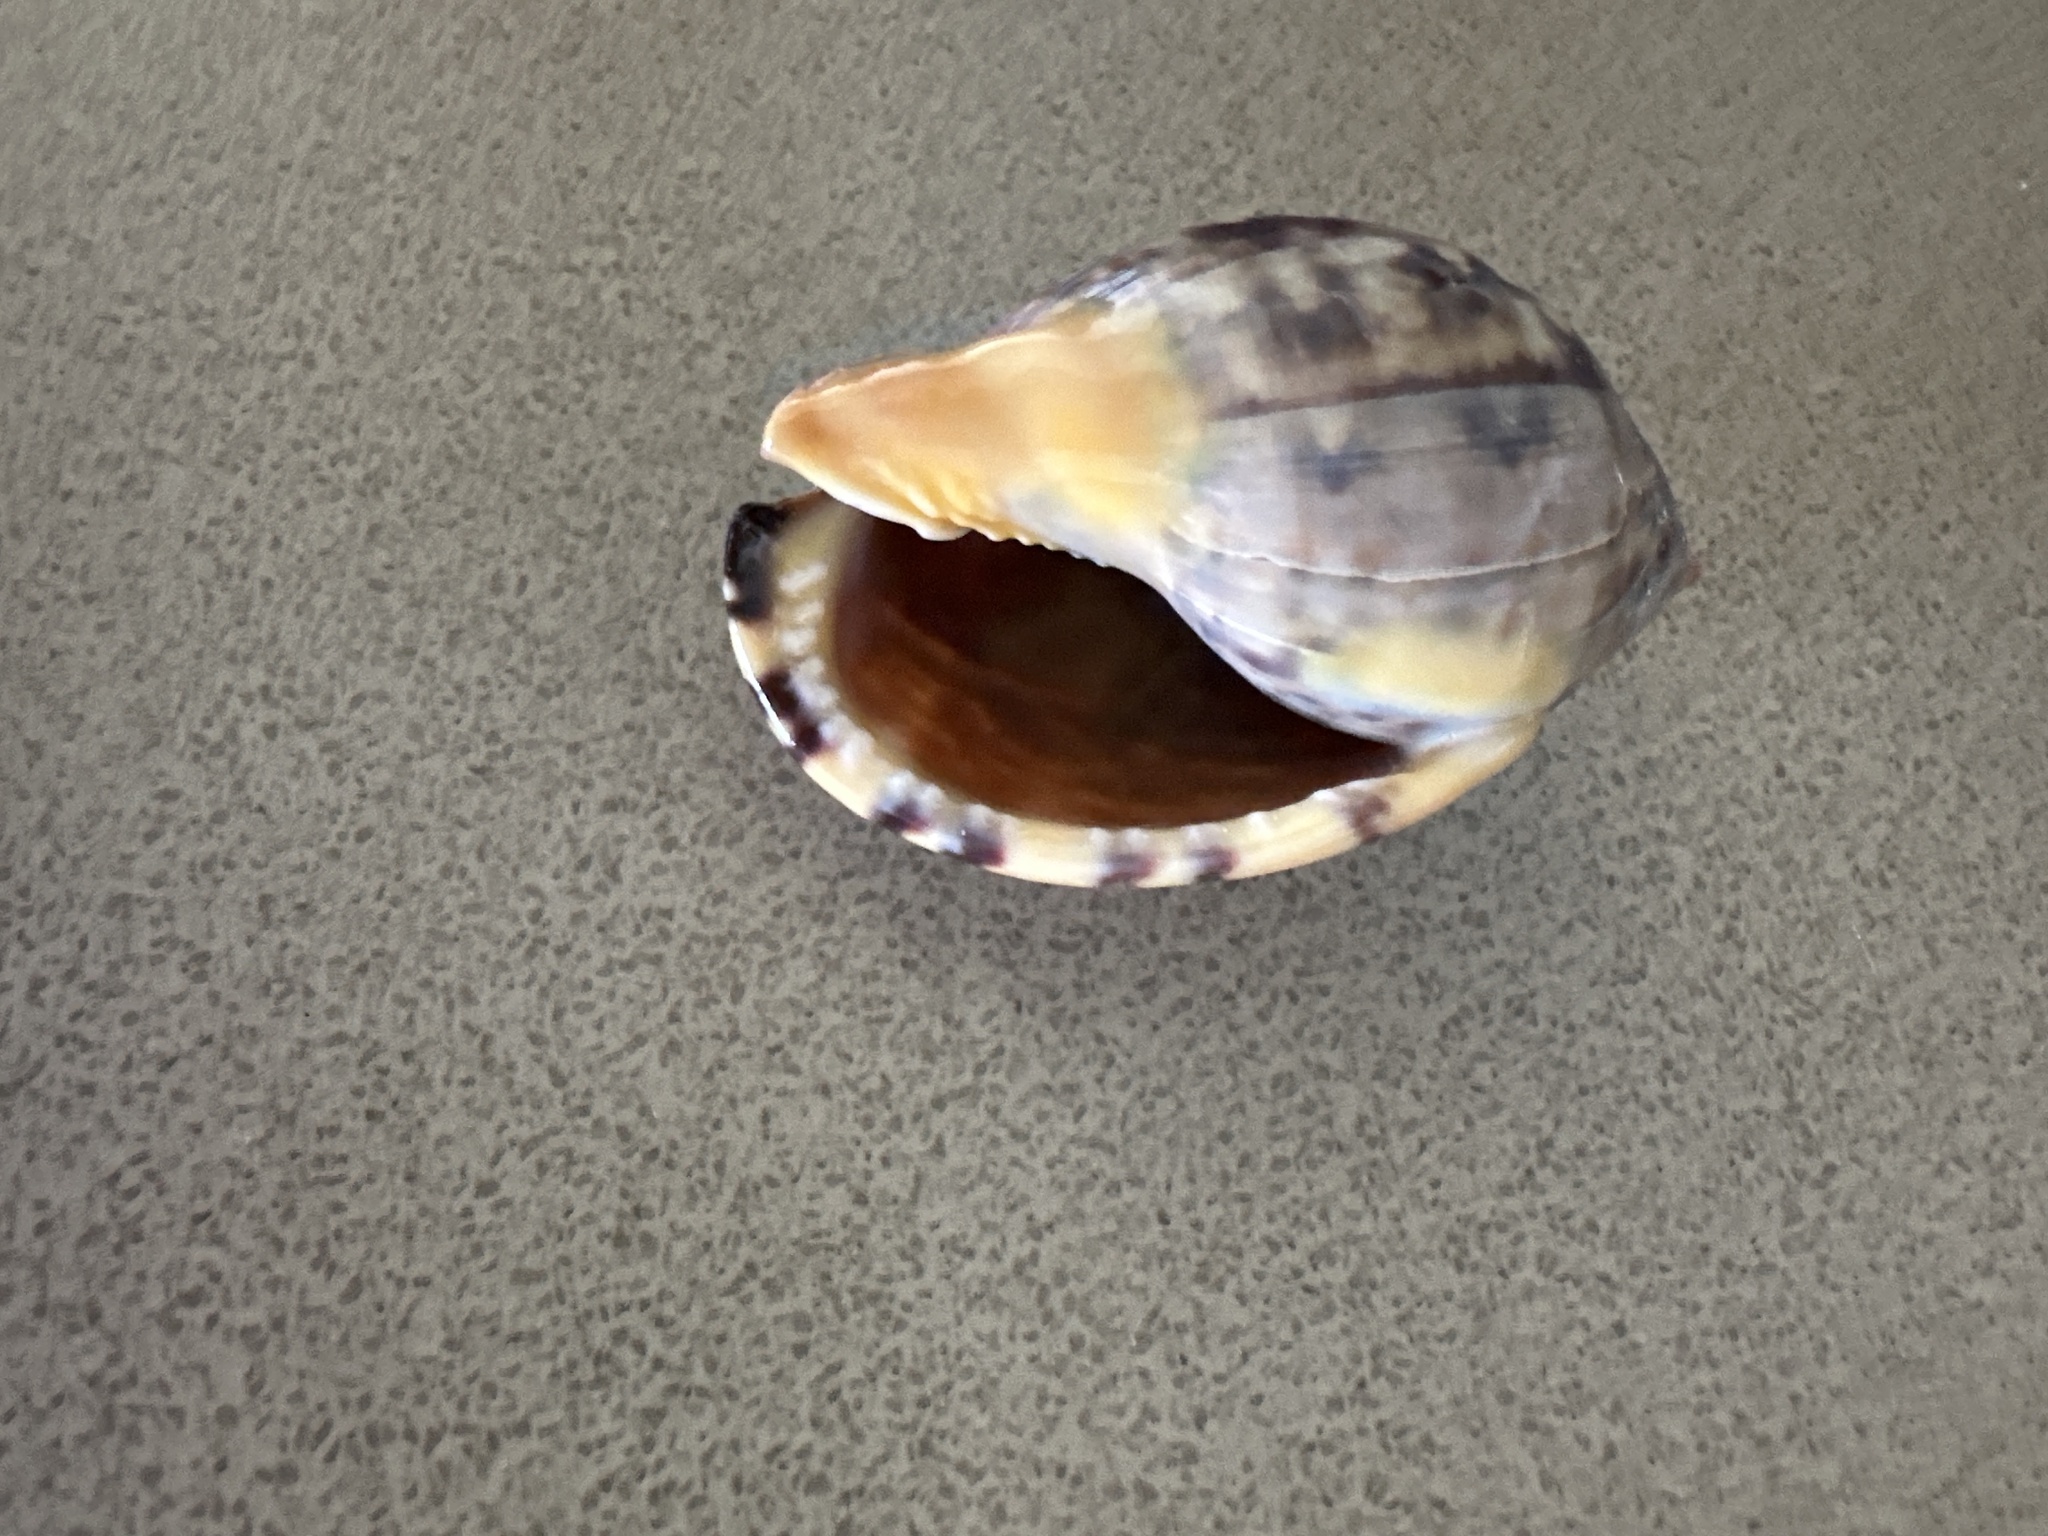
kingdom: Animalia
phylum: Mollusca
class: Gastropoda
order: Littorinimorpha
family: Cassidae
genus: Semicassis
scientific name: Semicassis labiata
